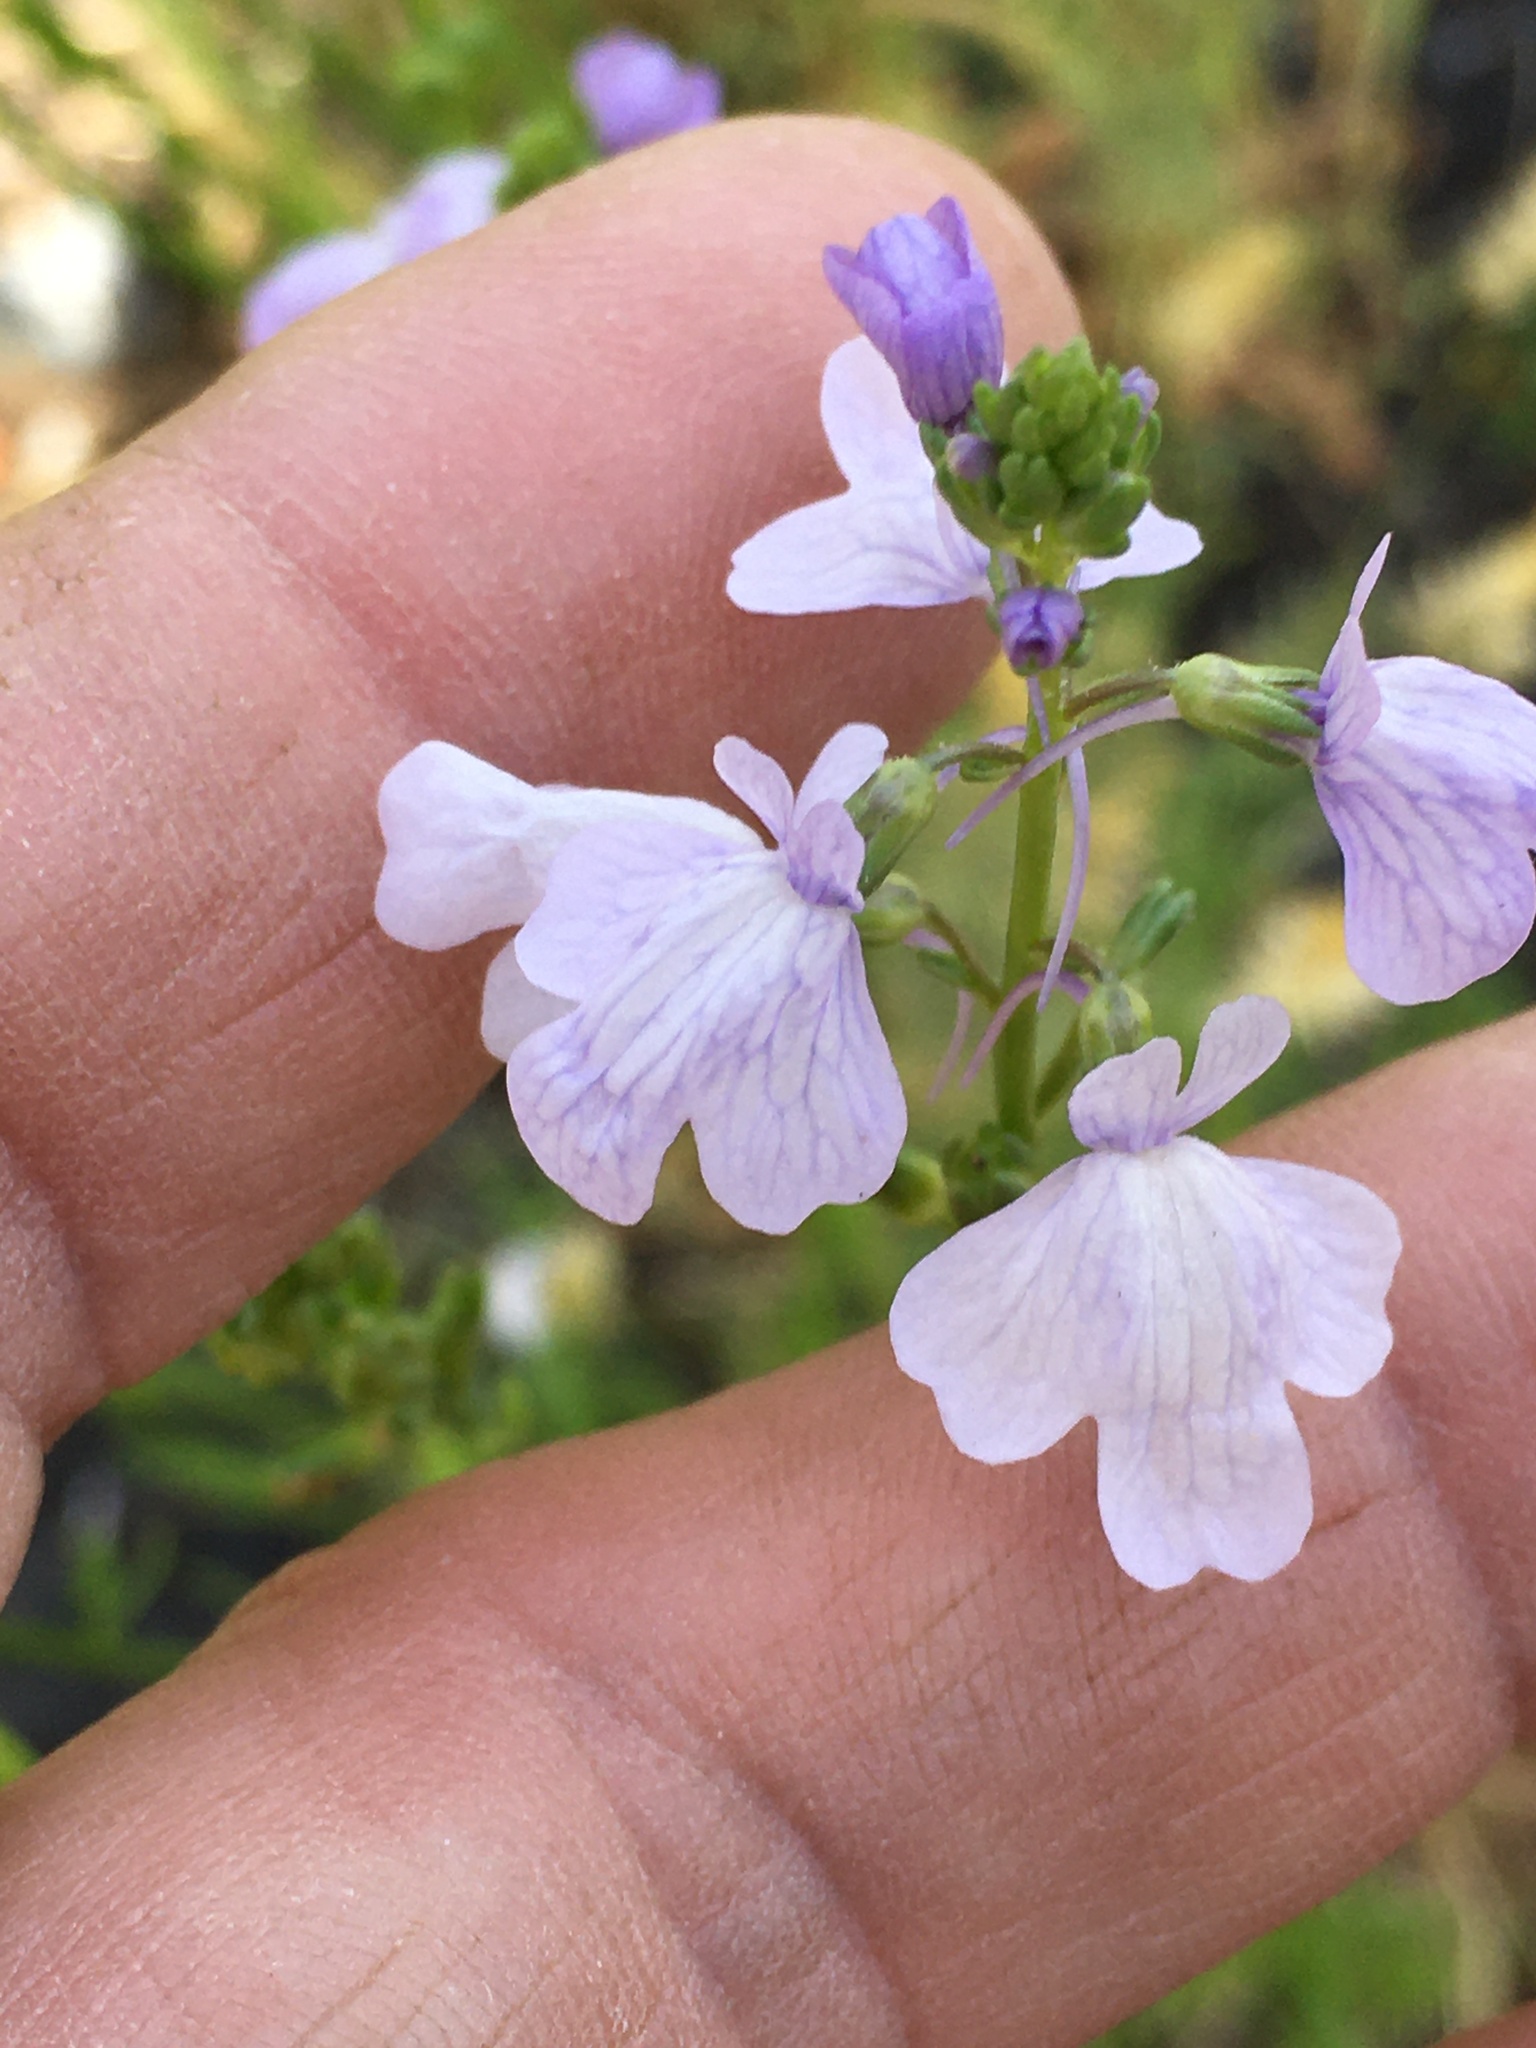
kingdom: Plantae
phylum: Tracheophyta
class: Magnoliopsida
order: Lamiales
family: Plantaginaceae
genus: Nuttallanthus
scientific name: Nuttallanthus texanus
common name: Texas toadflax
